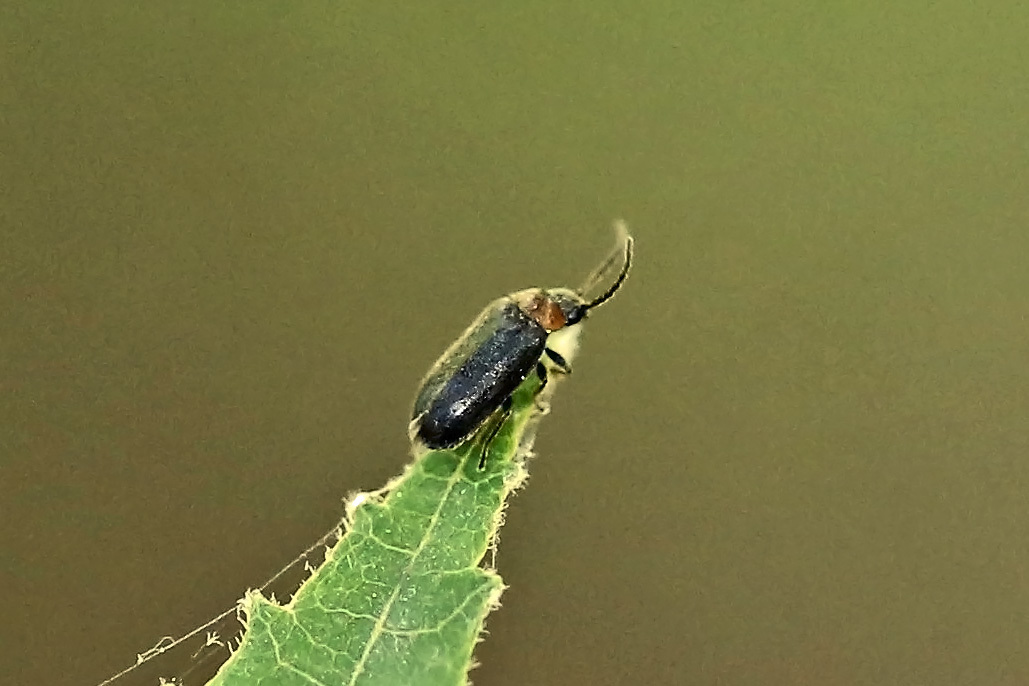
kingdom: Animalia
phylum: Arthropoda
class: Insecta
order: Coleoptera
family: Scirtidae
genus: Cyphon
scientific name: Cyphon ruficollis
